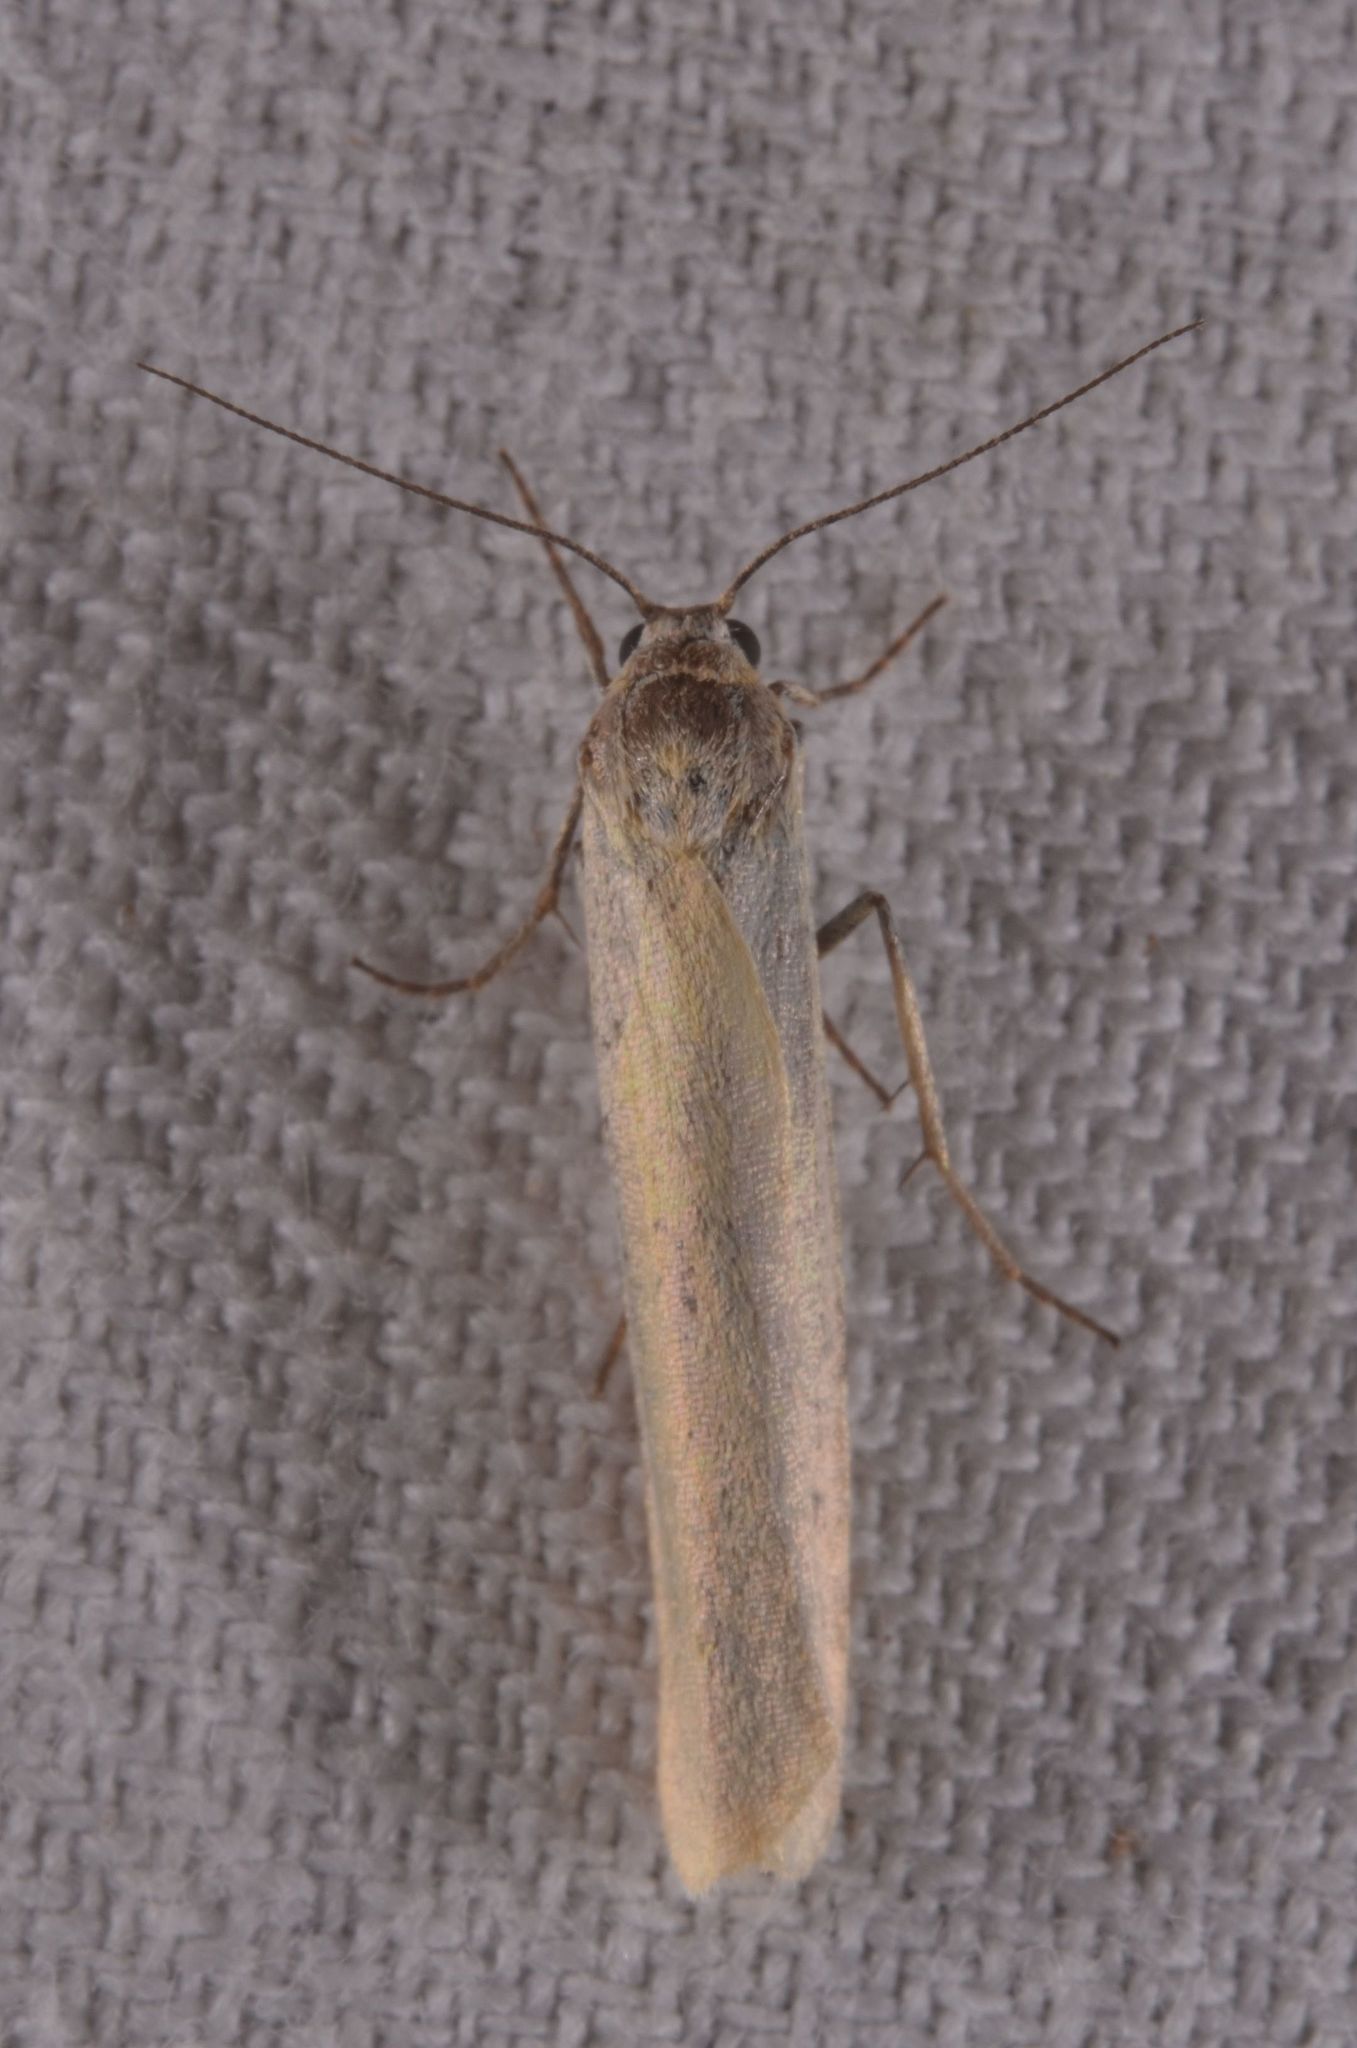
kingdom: Animalia
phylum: Arthropoda
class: Insecta
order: Lepidoptera
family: Erebidae
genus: Indalia
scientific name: Indalia lutarella
